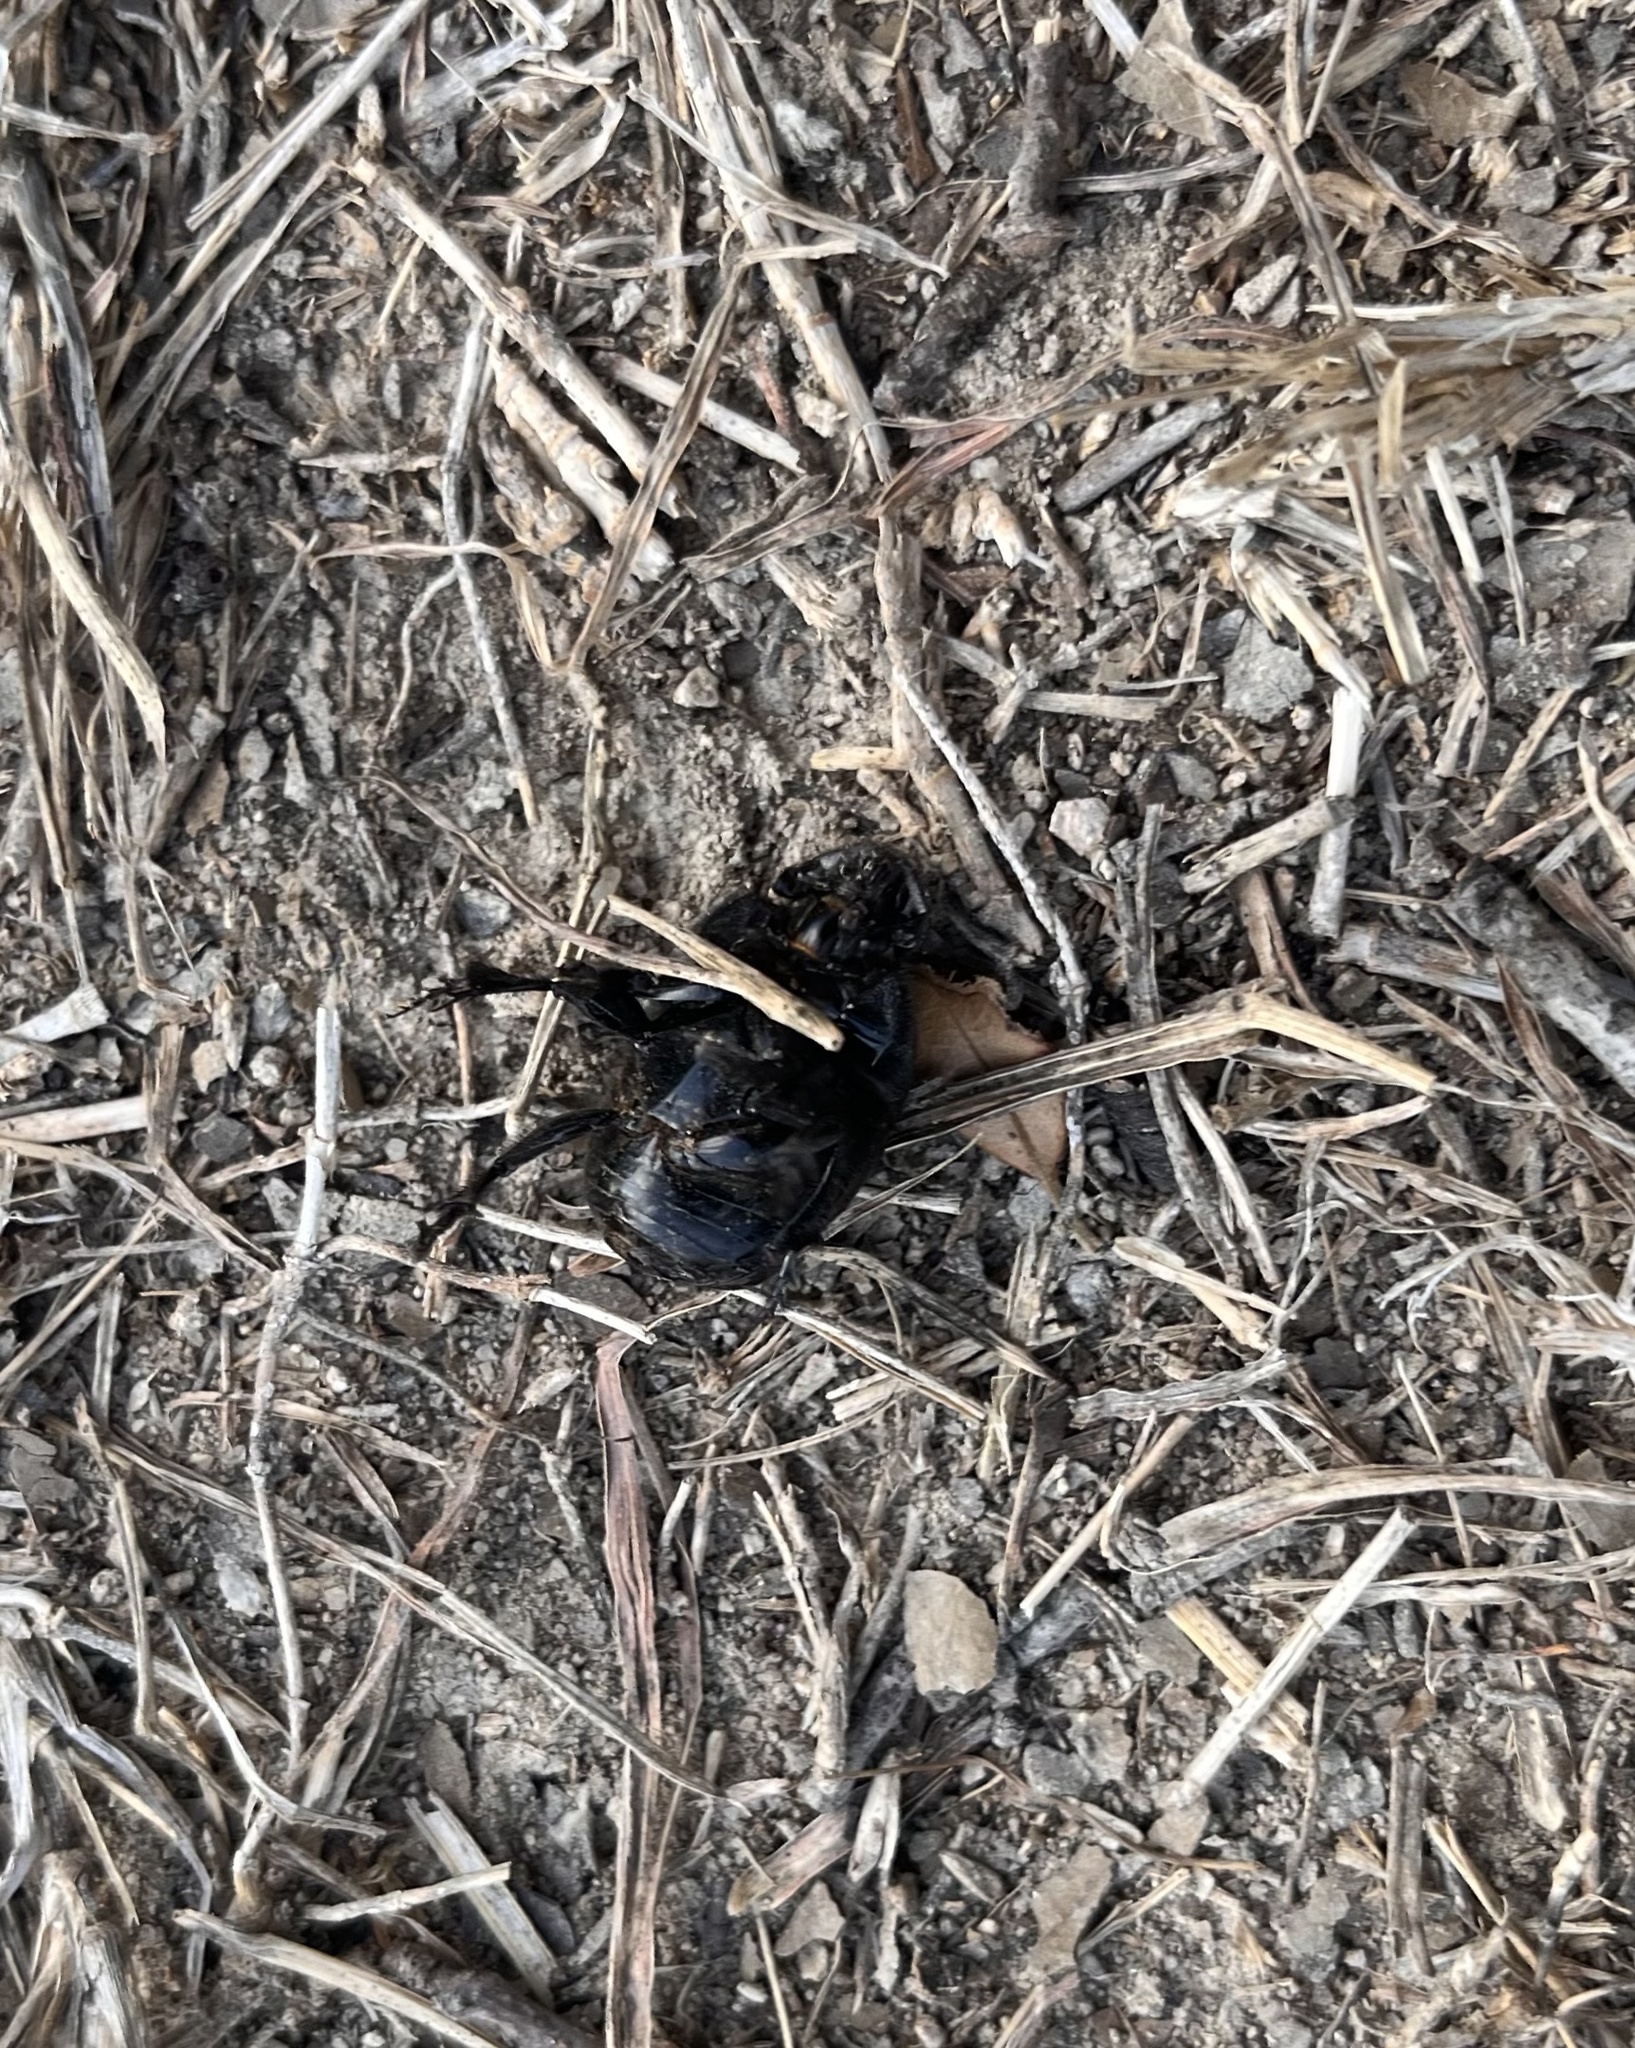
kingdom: Animalia
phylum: Arthropoda
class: Insecta
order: Coleoptera
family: Scarabaeidae
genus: Phanaeus
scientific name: Phanaeus texensis
